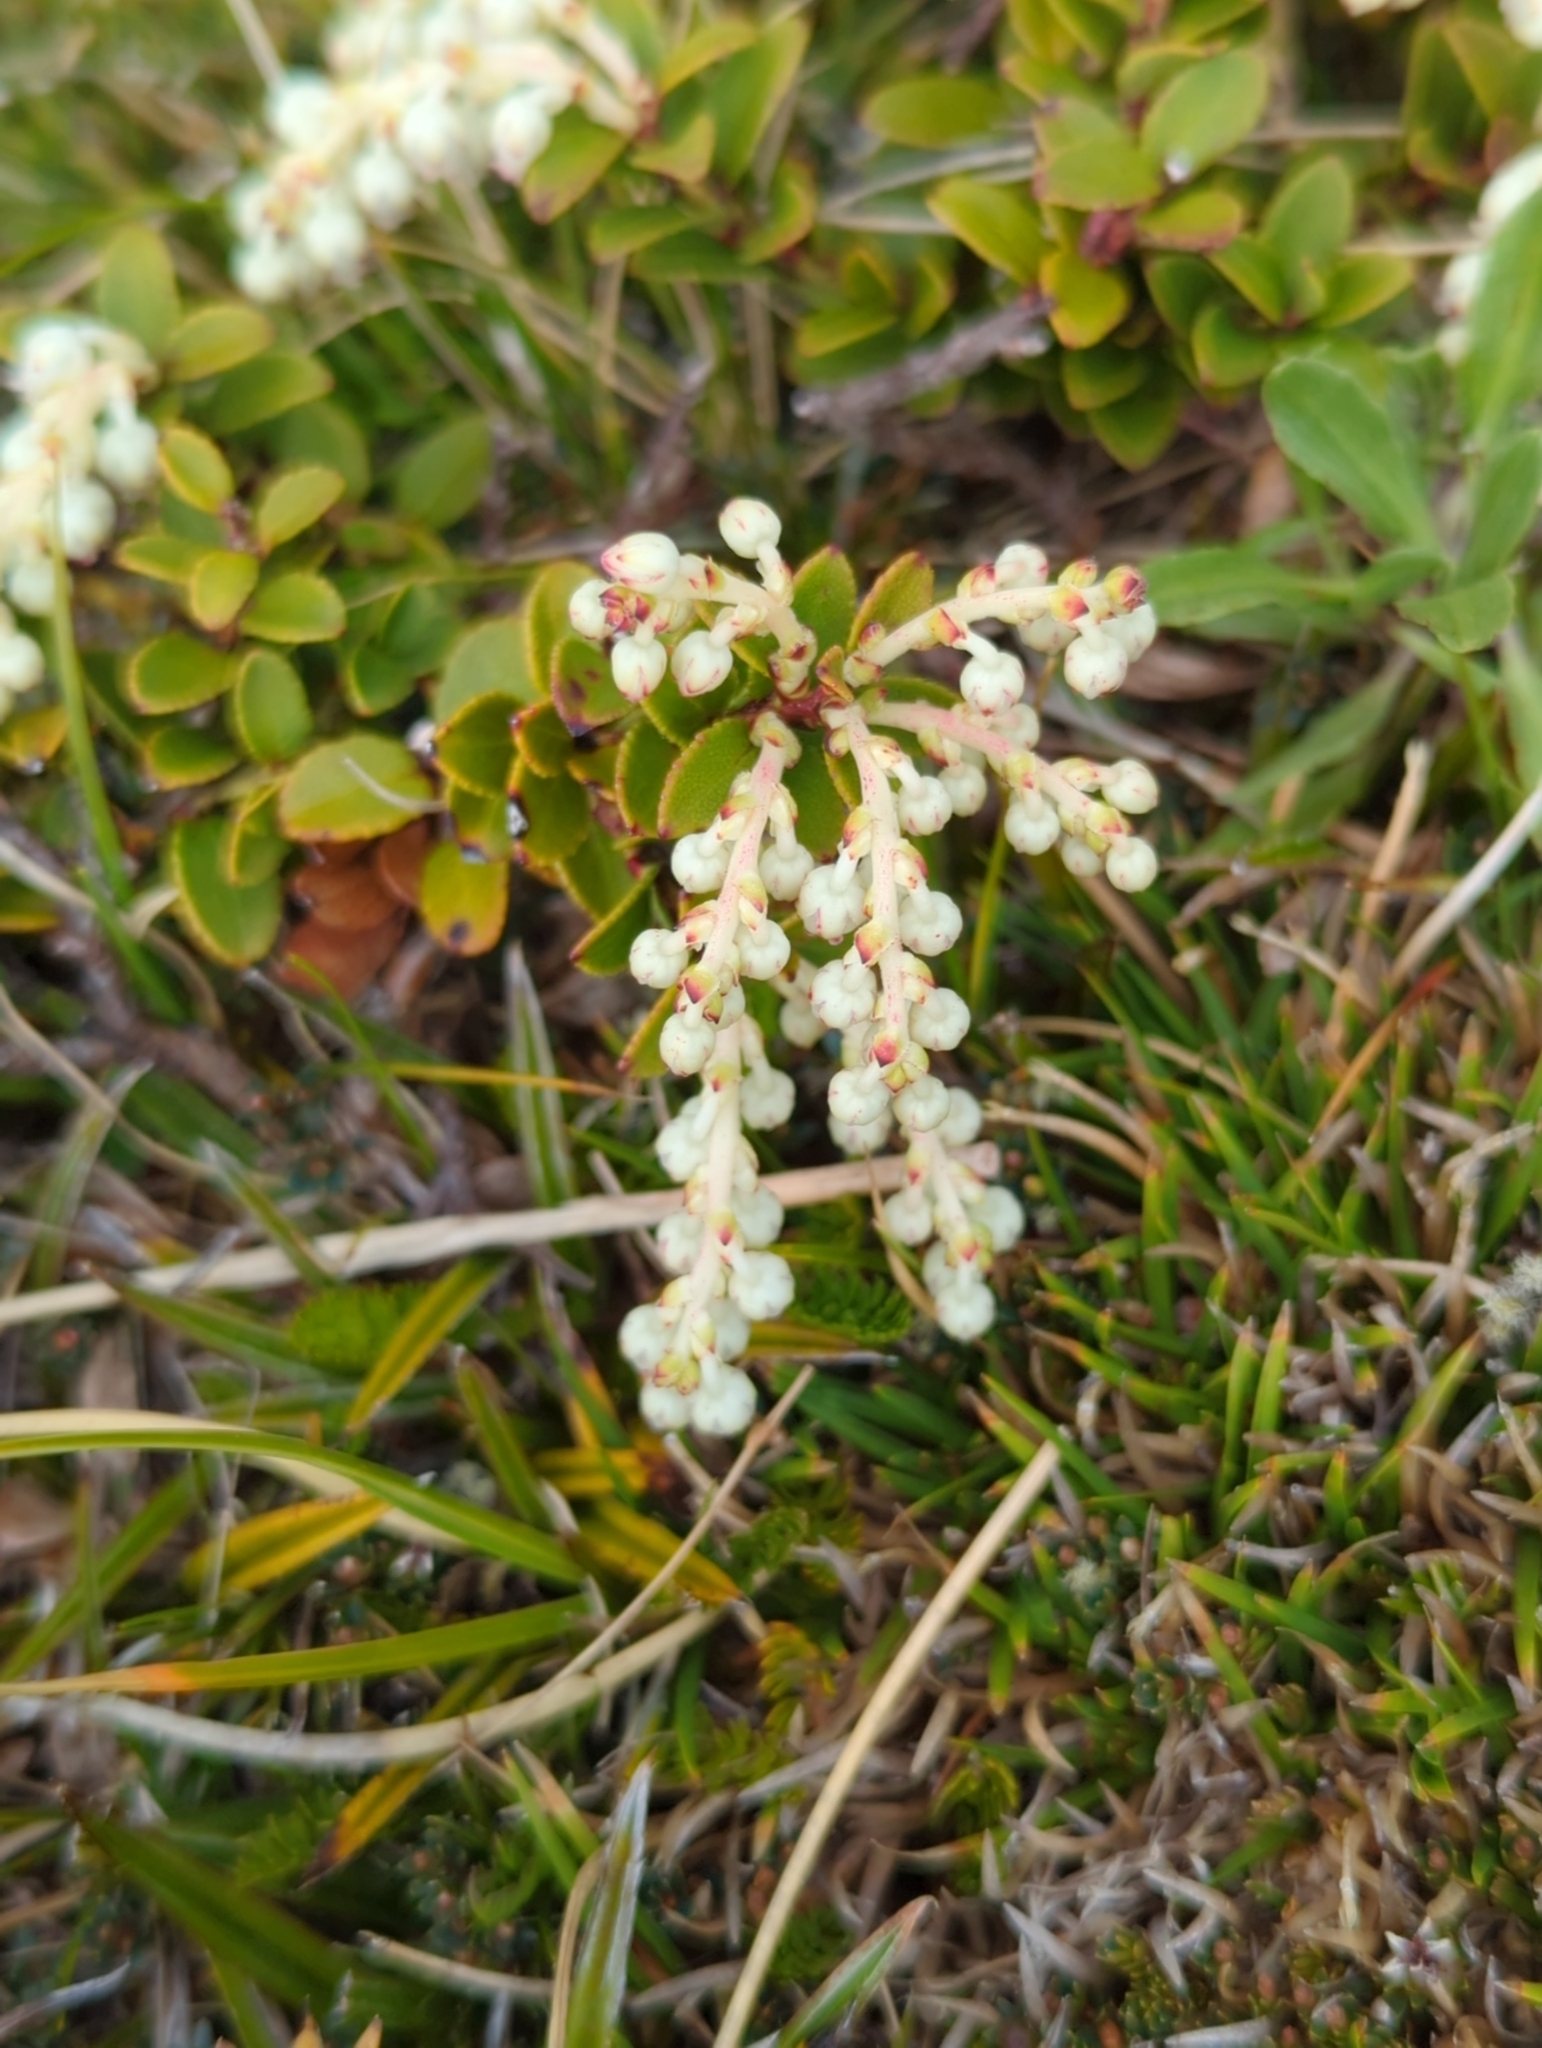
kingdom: Plantae
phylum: Tracheophyta
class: Magnoliopsida
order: Ericales
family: Ericaceae
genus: Gaultheria
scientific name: Gaultheria crassa
